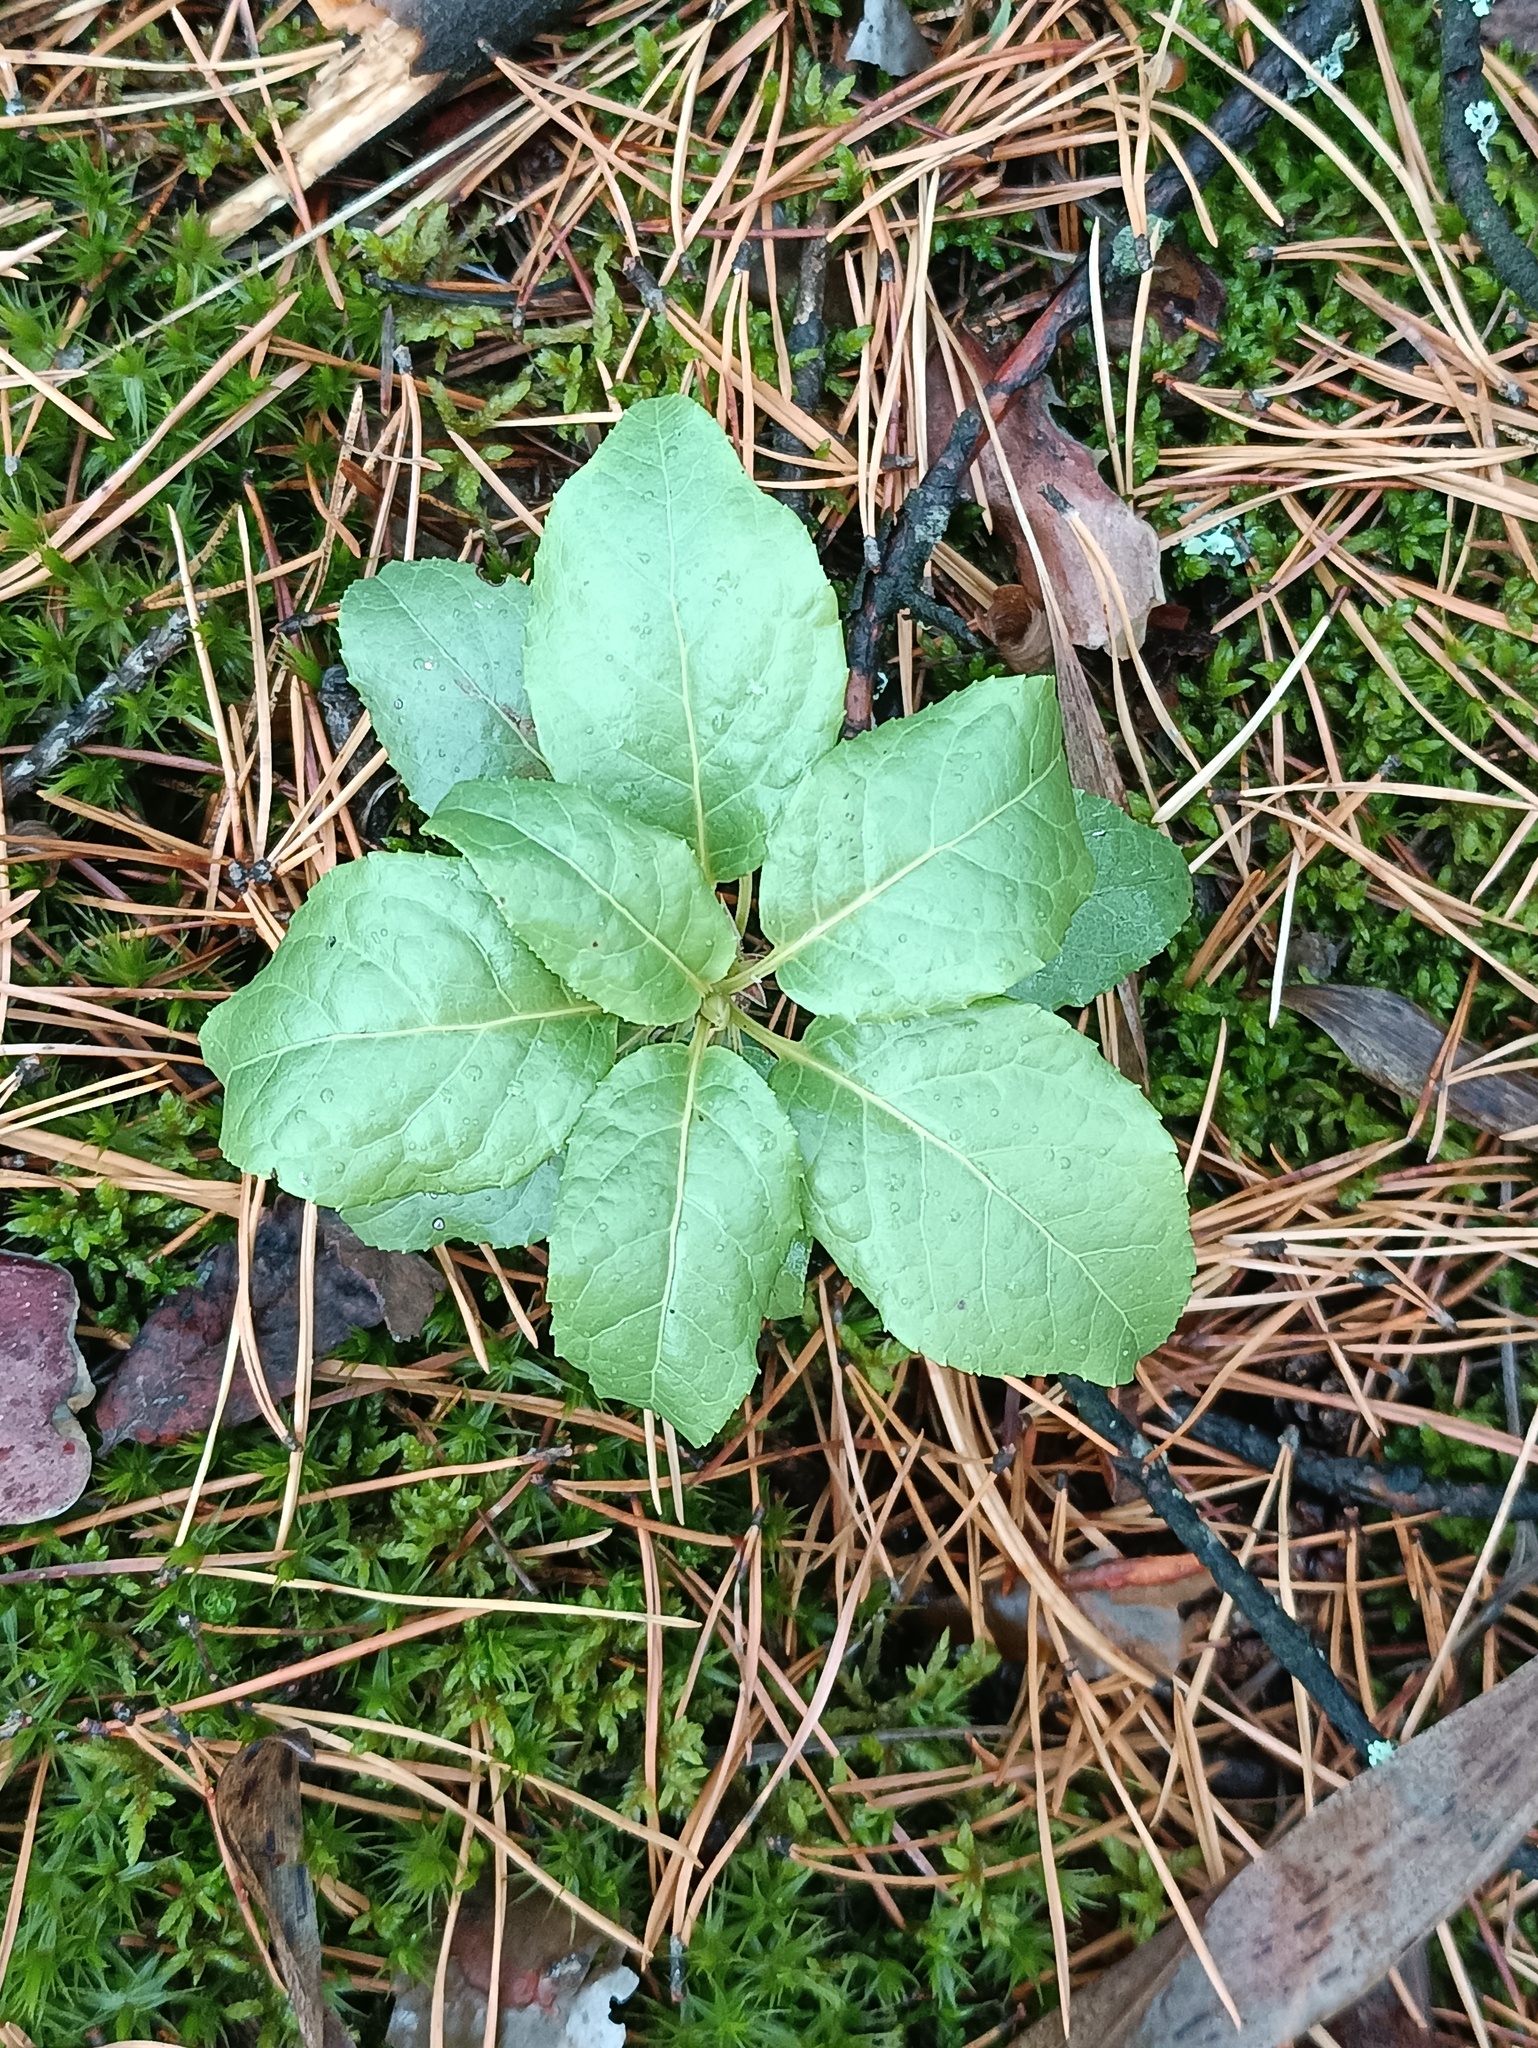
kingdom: Plantae
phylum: Tracheophyta
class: Magnoliopsida
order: Ericales
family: Ericaceae
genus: Orthilia
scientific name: Orthilia secunda
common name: One-sided orthilia
